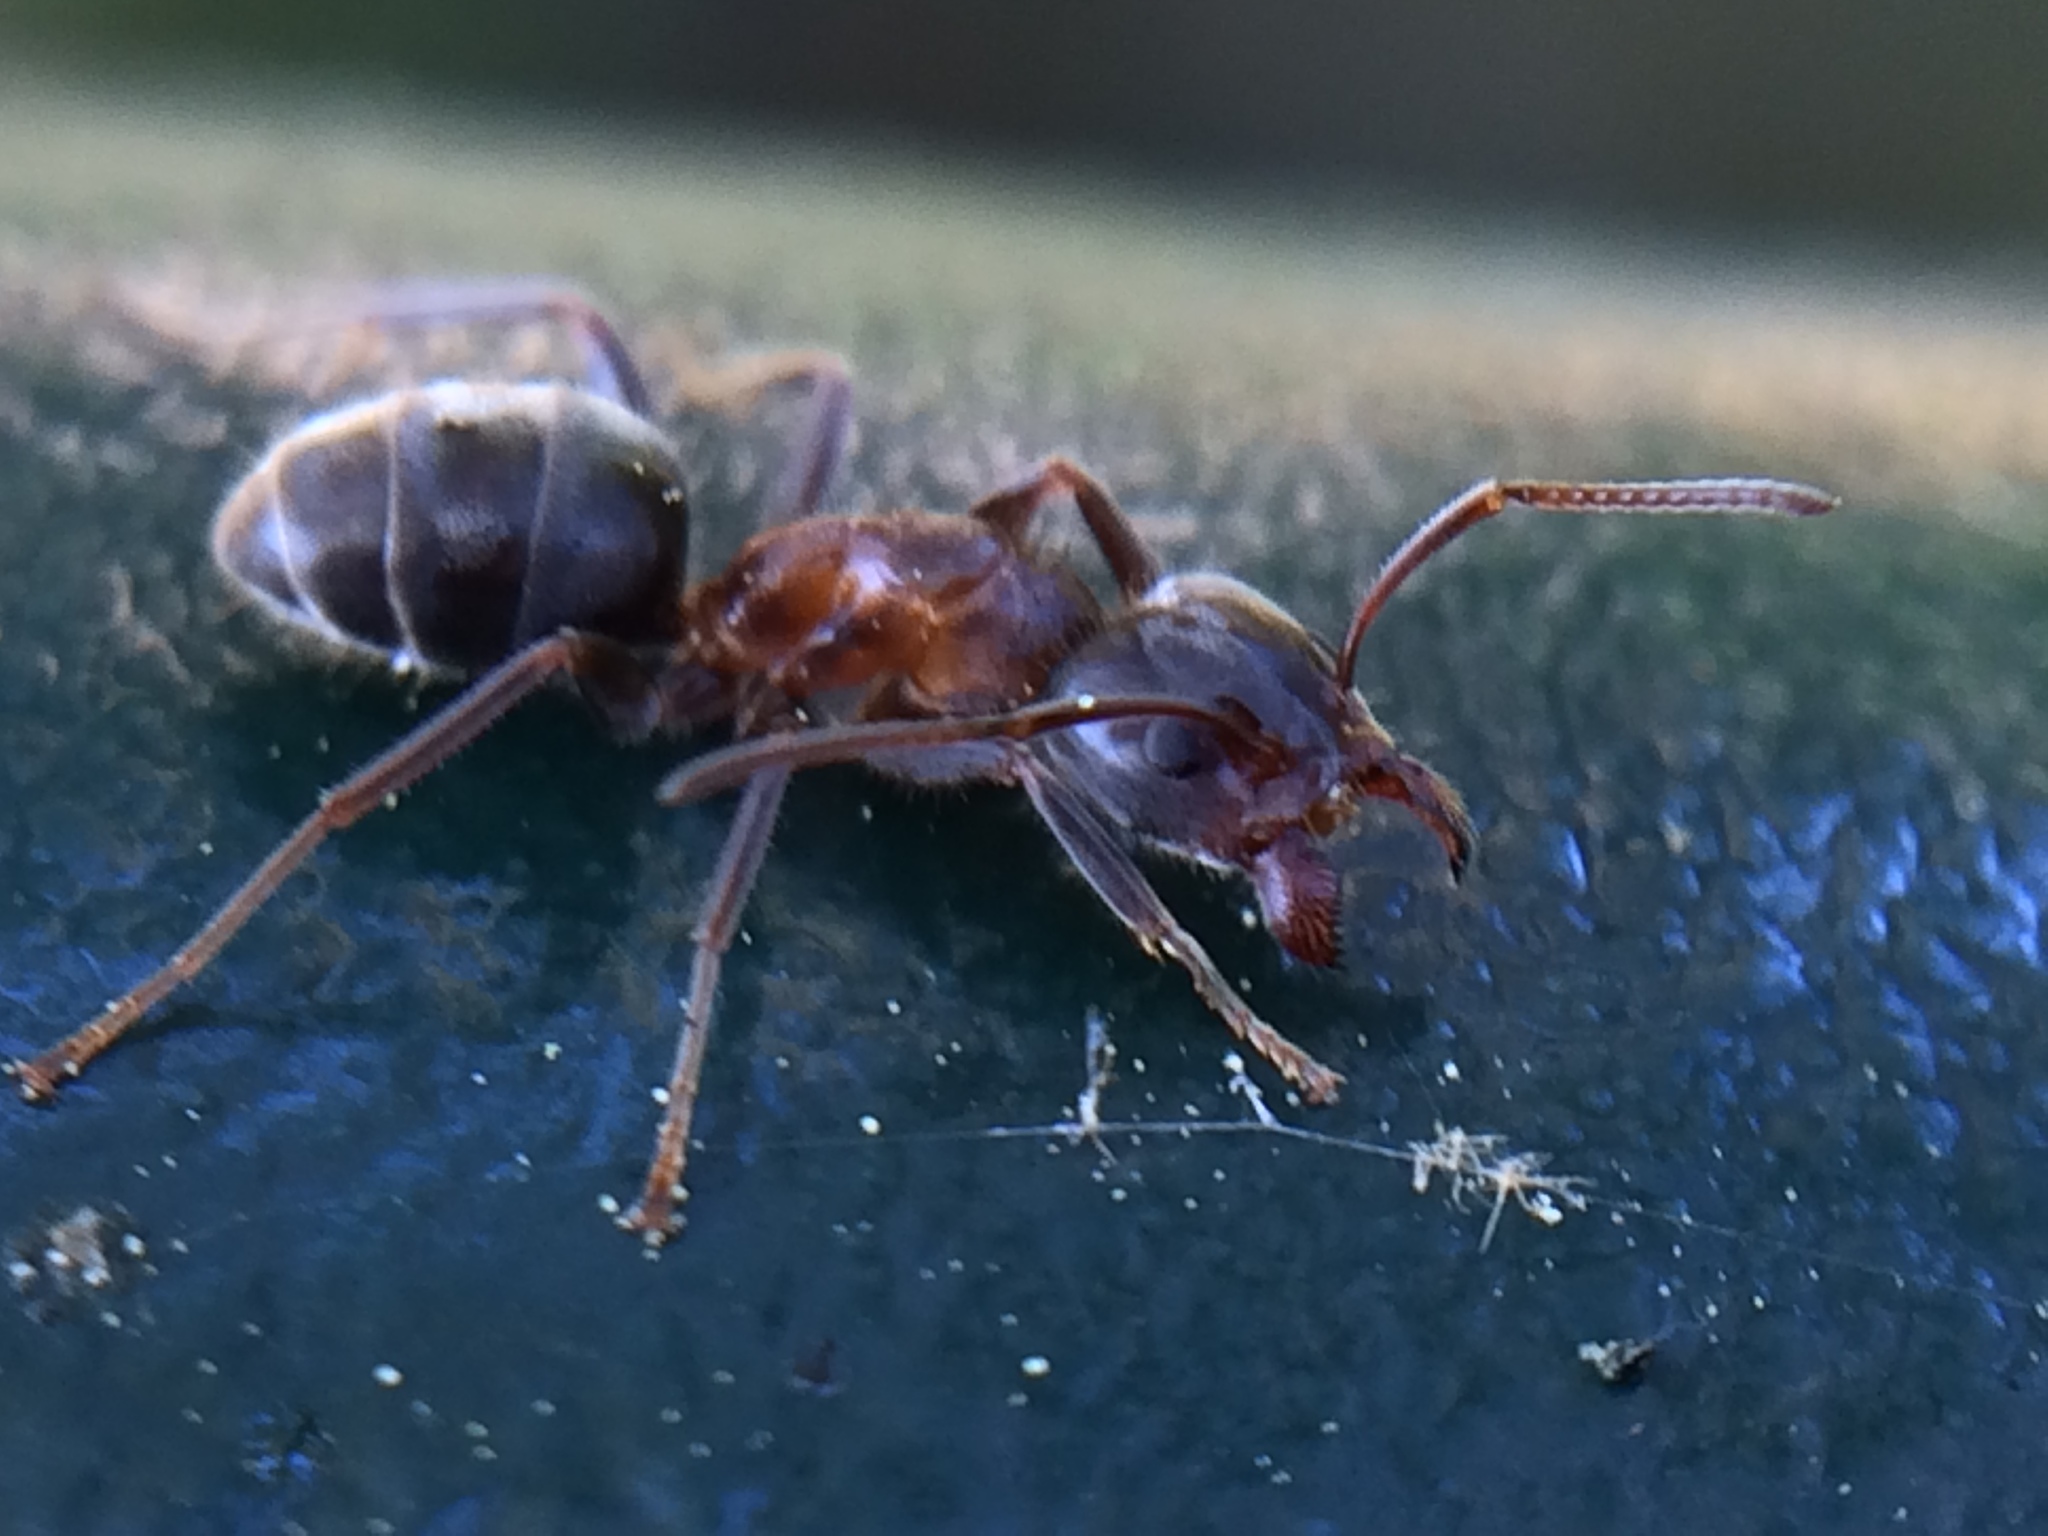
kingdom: Animalia
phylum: Arthropoda
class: Insecta
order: Hymenoptera
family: Formicidae
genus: Liometopum
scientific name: Liometopum occidentale
